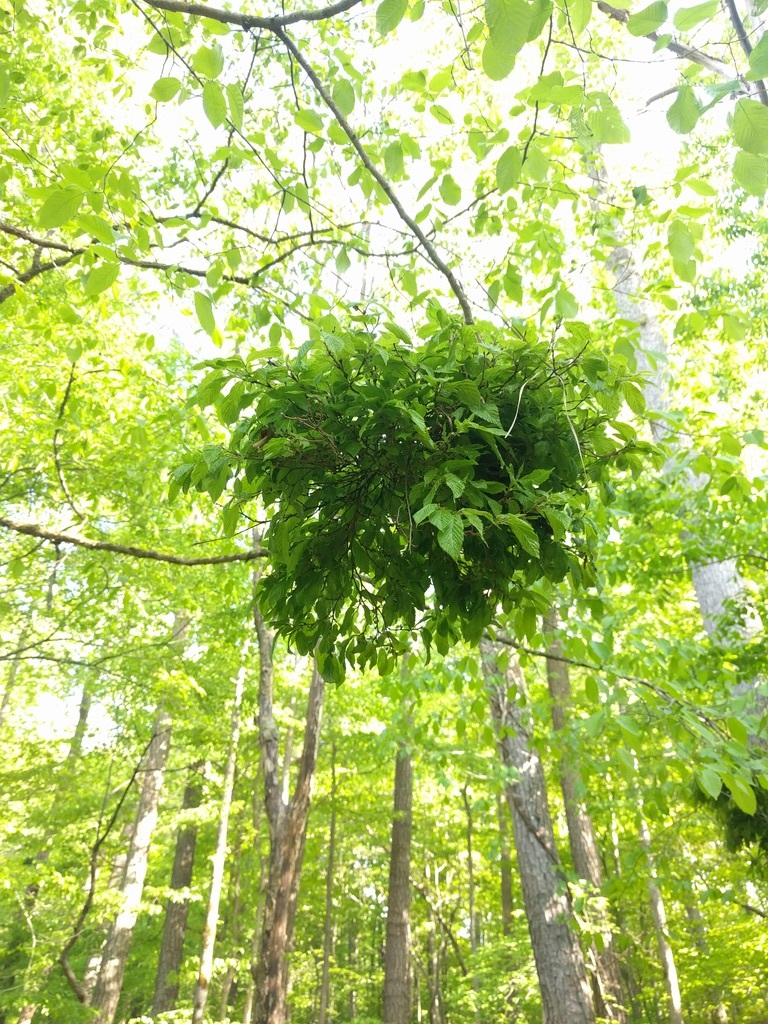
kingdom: Plantae
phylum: Tracheophyta
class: Magnoliopsida
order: Fagales
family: Fagaceae
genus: Fagus
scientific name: Fagus grandifolia
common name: American beech
